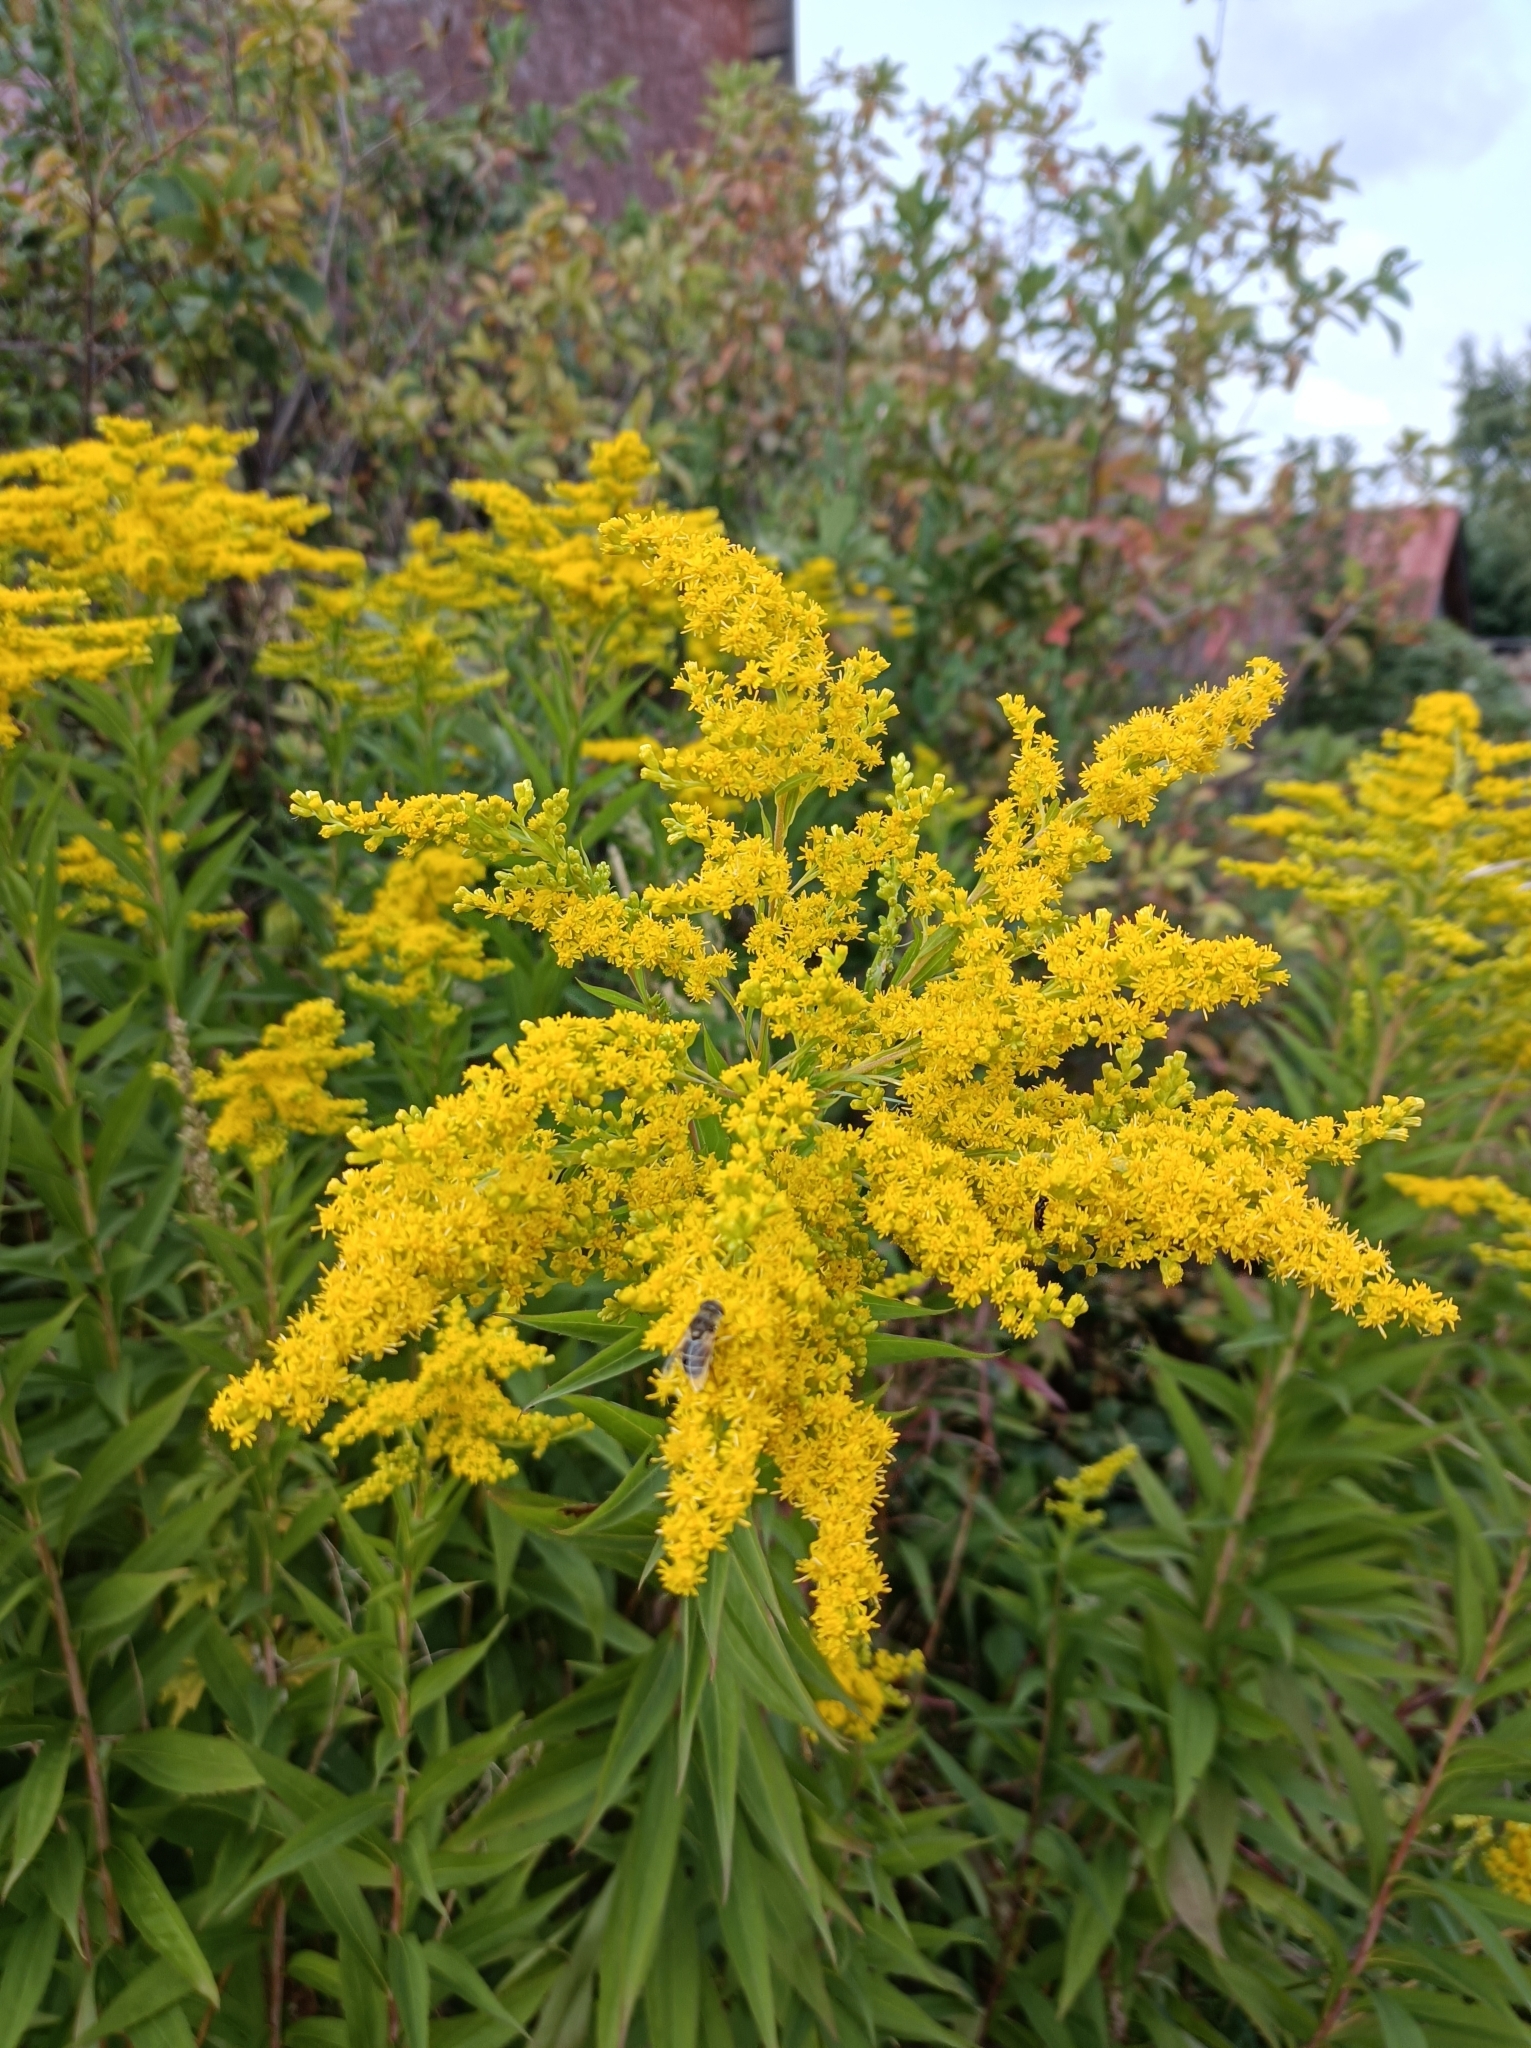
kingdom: Plantae
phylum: Tracheophyta
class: Magnoliopsida
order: Asterales
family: Asteraceae
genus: Solidago
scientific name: Solidago gigantea
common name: Giant goldenrod
